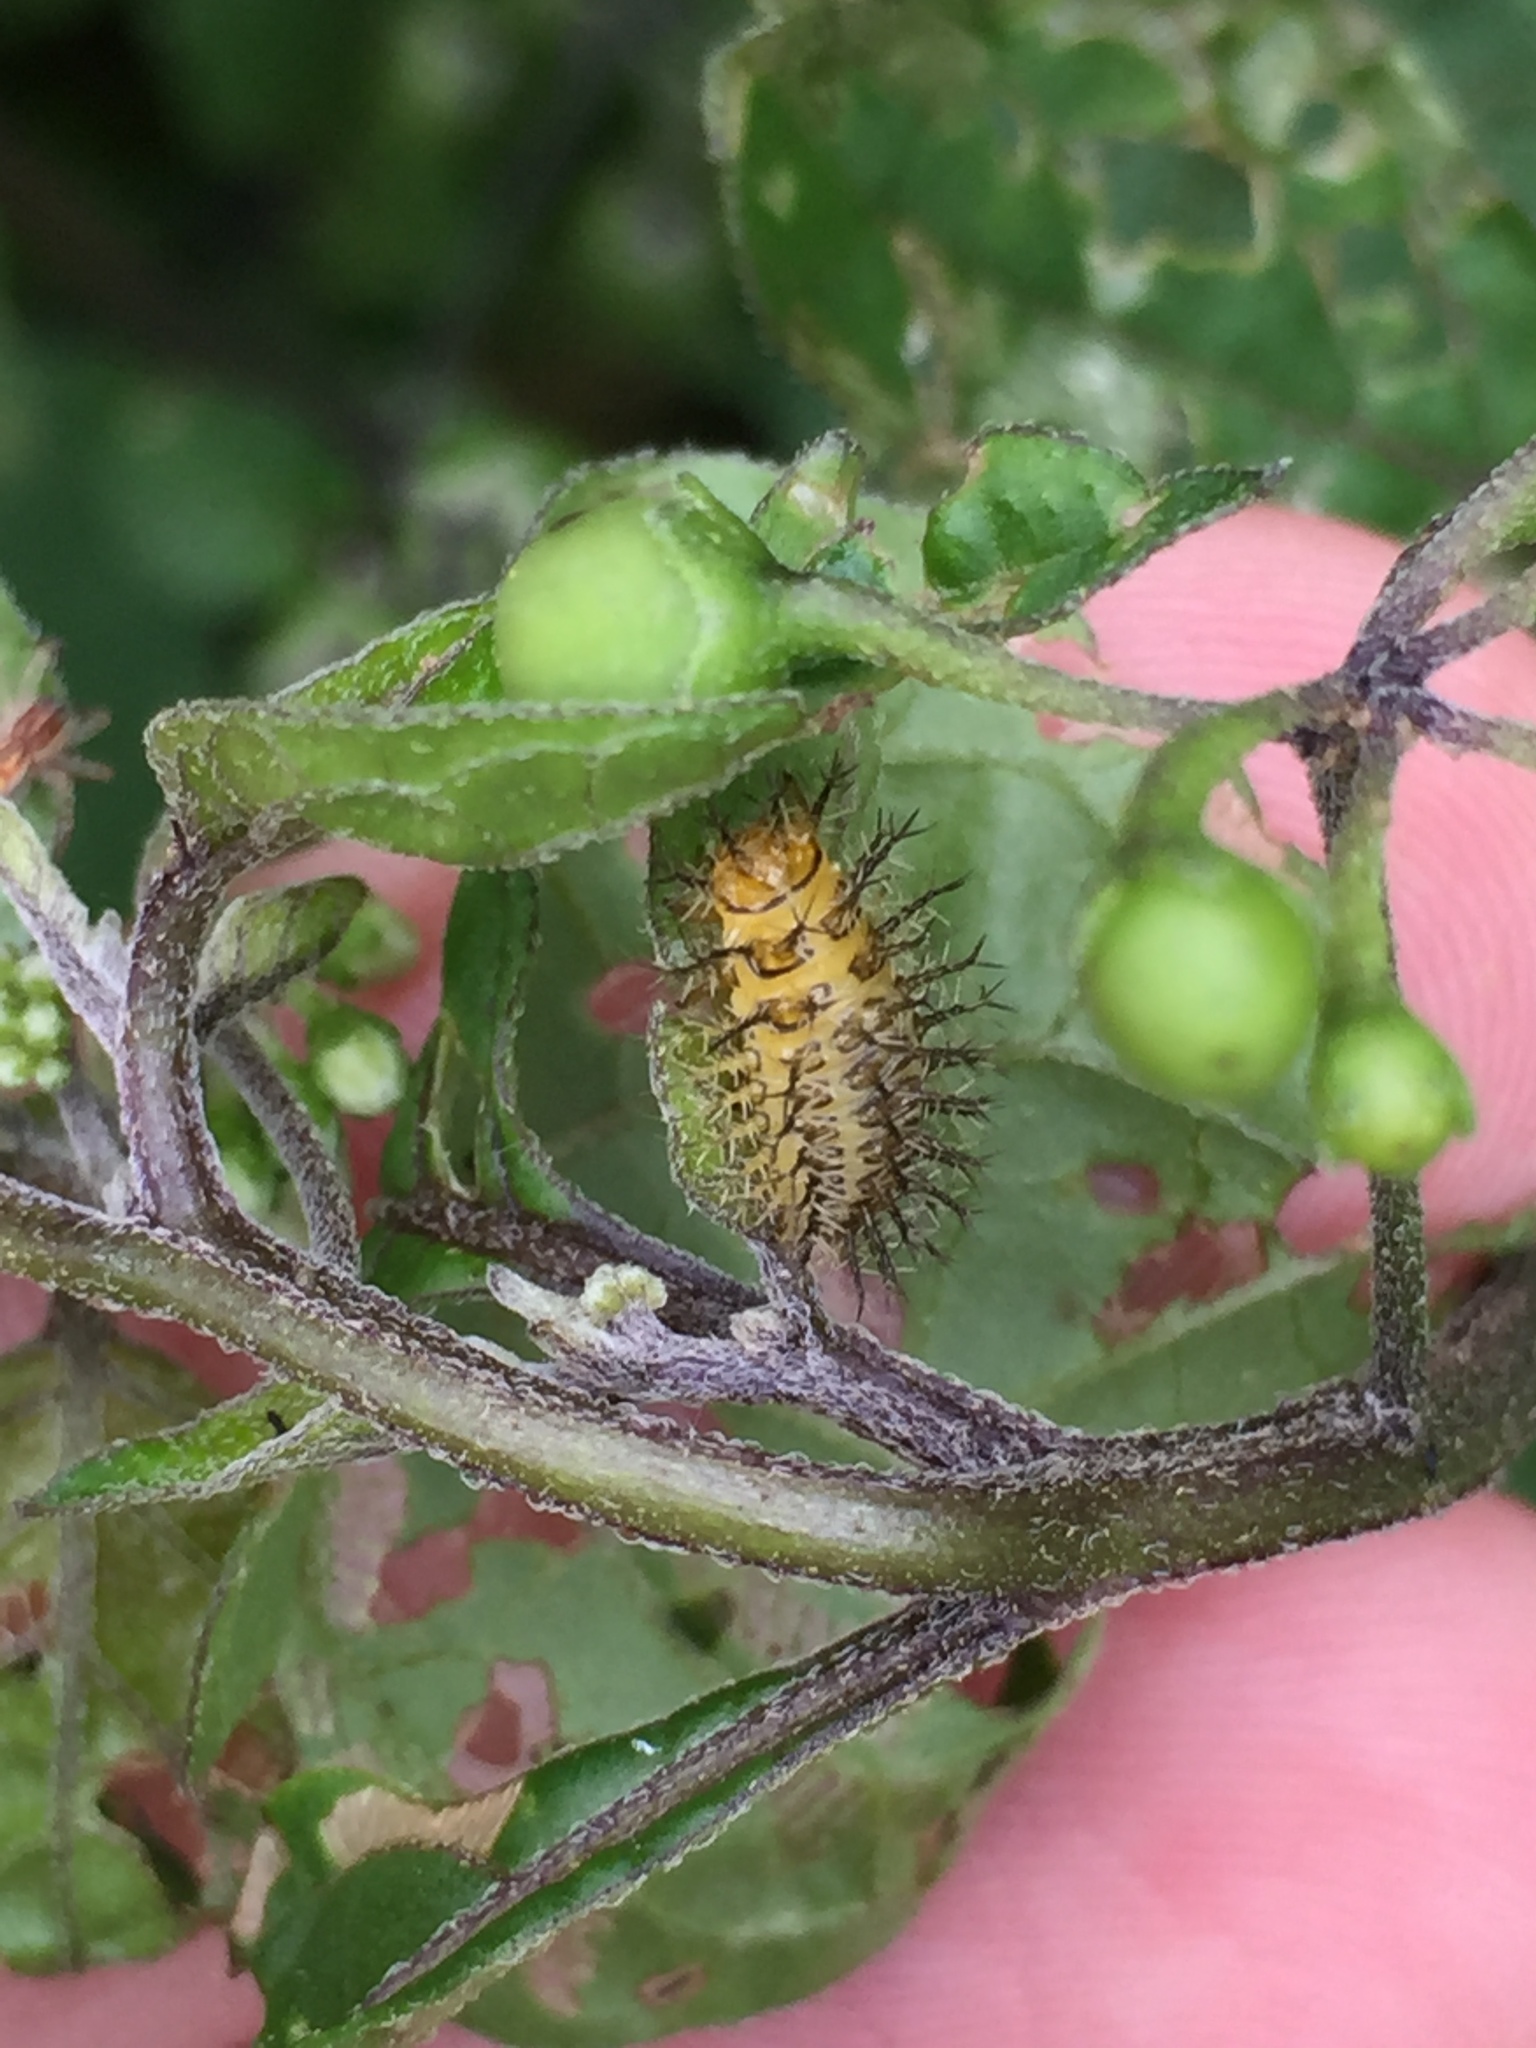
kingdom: Animalia
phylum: Arthropoda
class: Insecta
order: Coleoptera
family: Coccinellidae
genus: Henosepilachna
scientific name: Henosepilachna vigintioctopunctata
